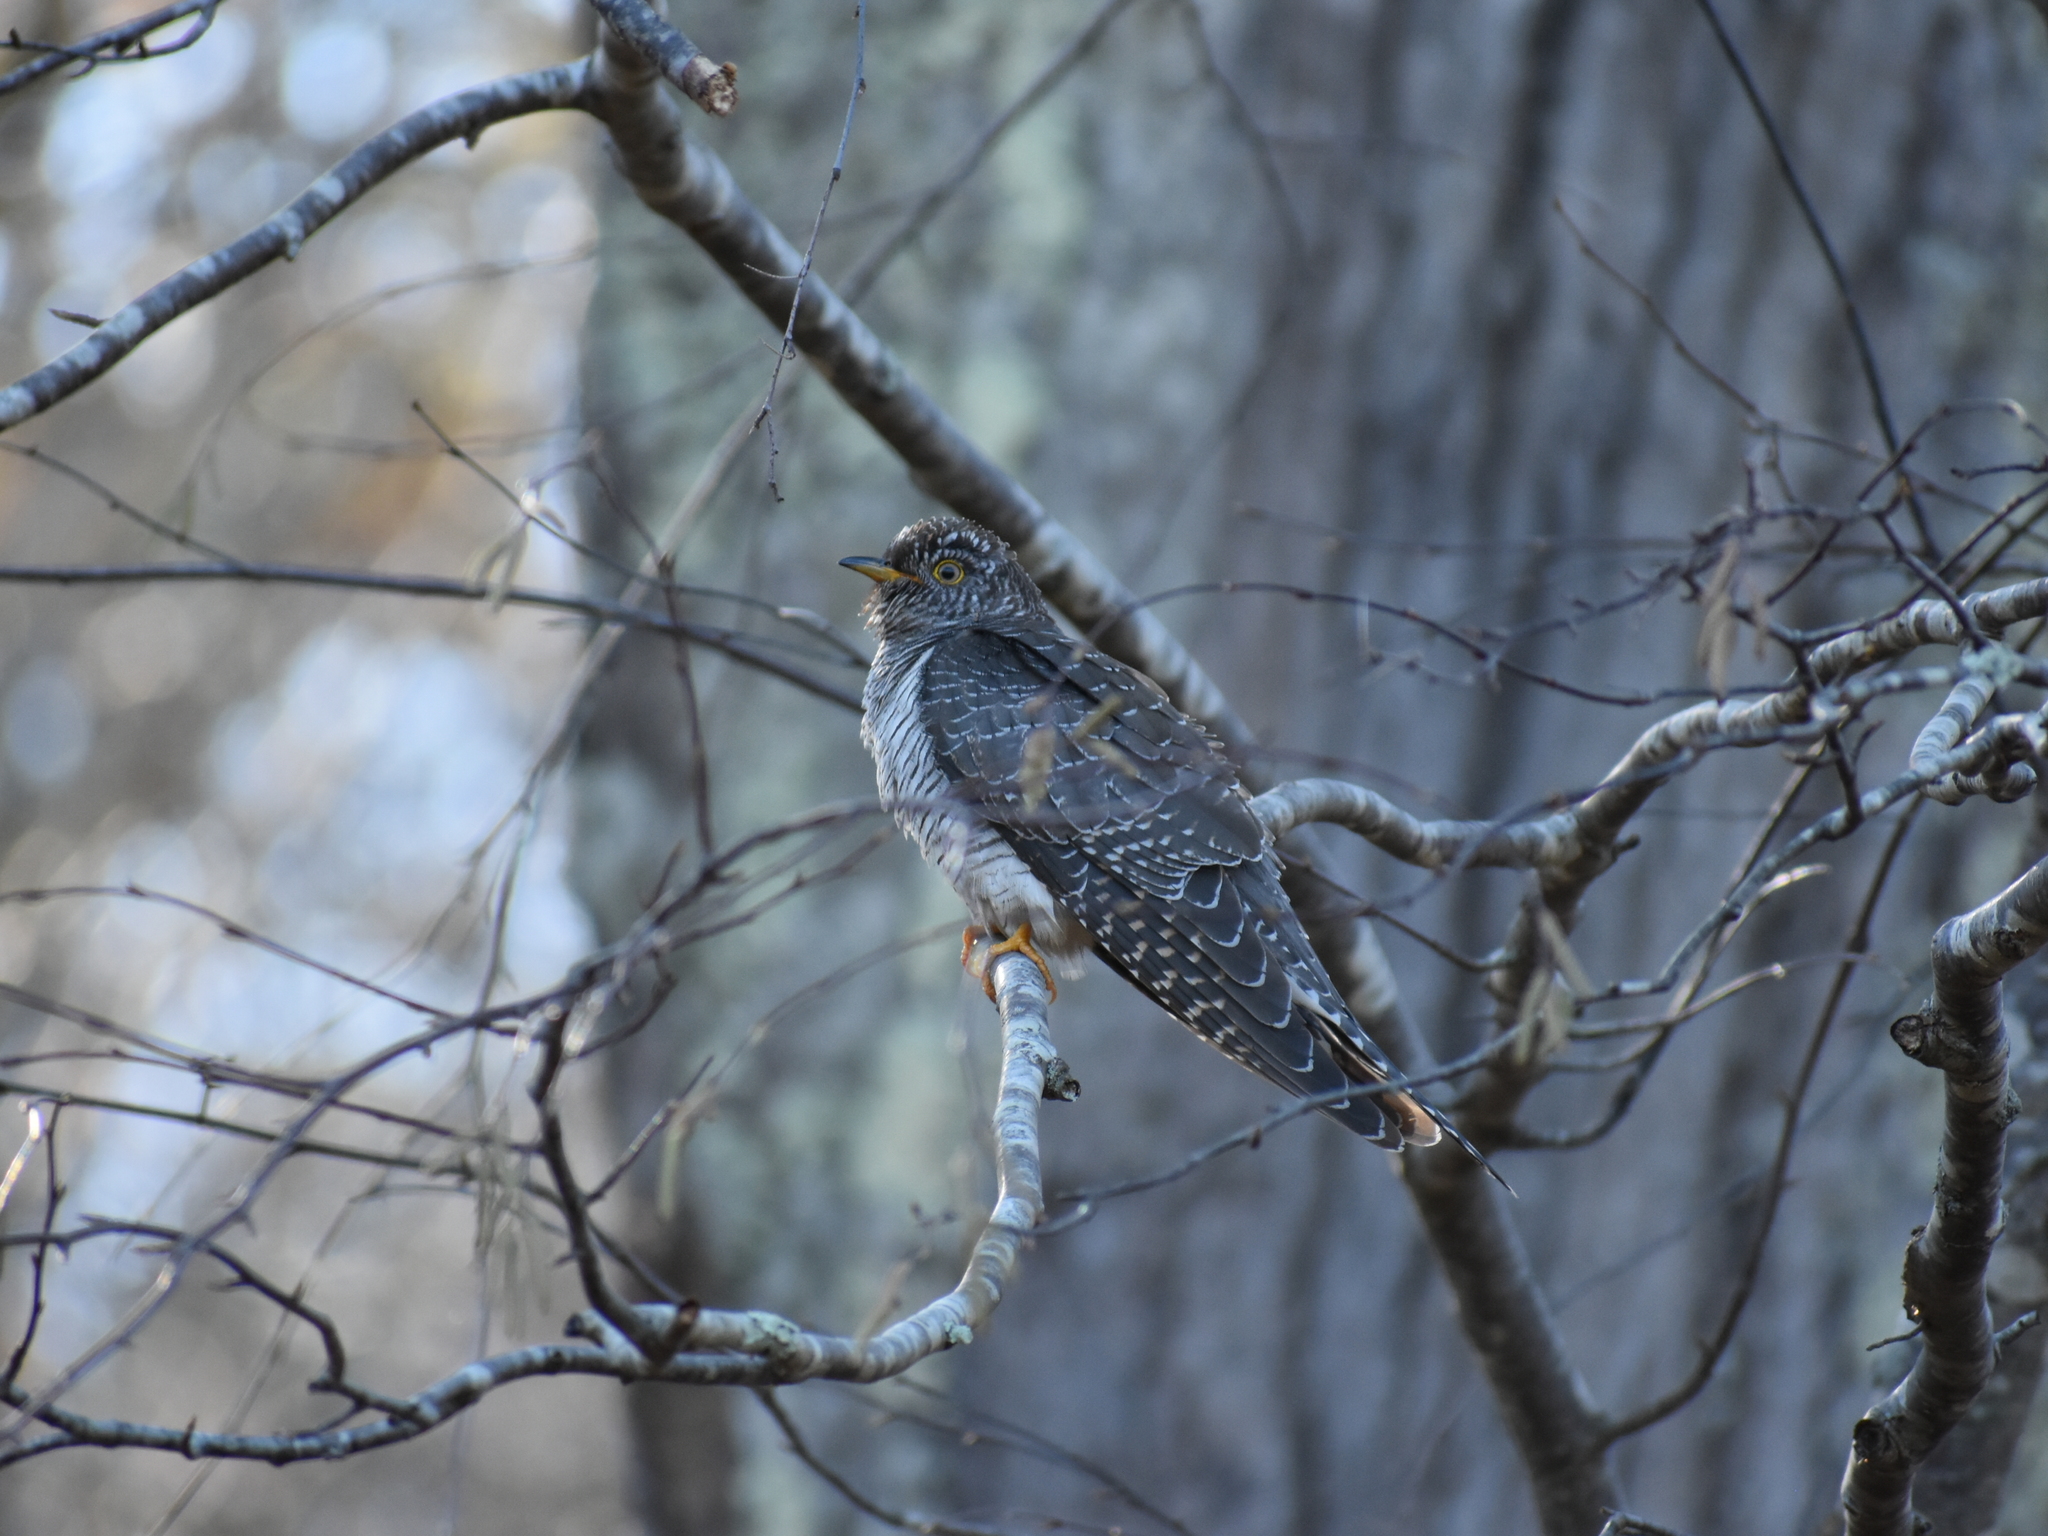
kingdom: Animalia
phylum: Chordata
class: Aves
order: Cuculiformes
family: Cuculidae
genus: Cuculus
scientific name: Cuculus canorus
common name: Common cuckoo
